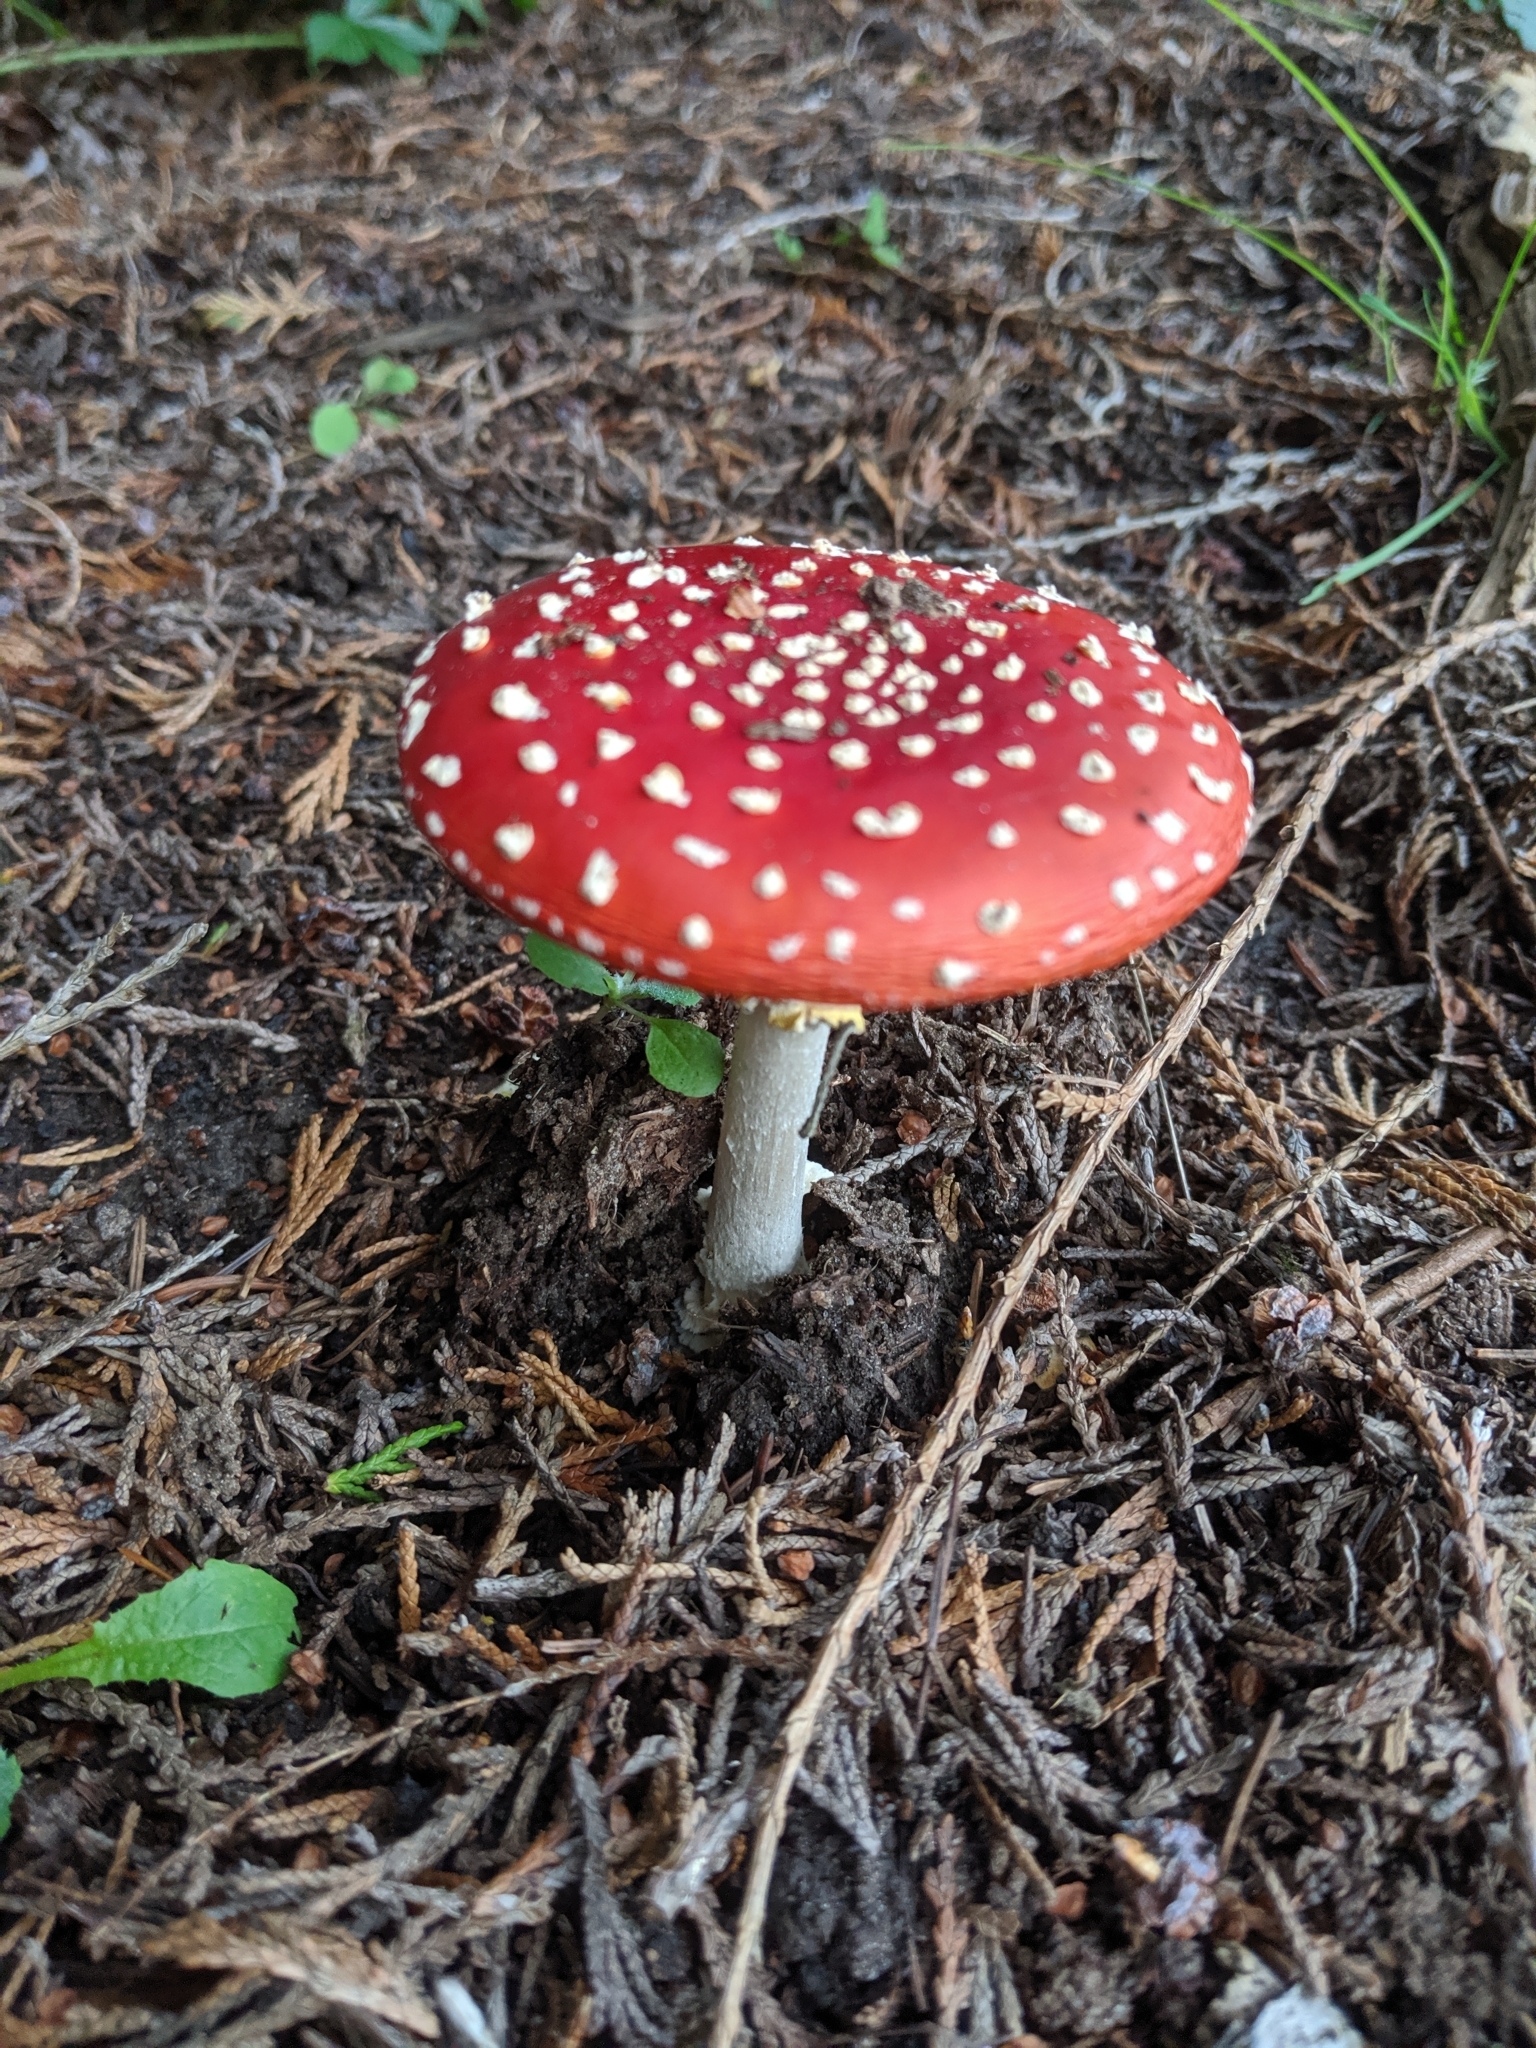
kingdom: Fungi
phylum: Basidiomycota
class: Agaricomycetes
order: Agaricales
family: Amanitaceae
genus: Amanita
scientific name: Amanita muscaria
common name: Fly agaric
